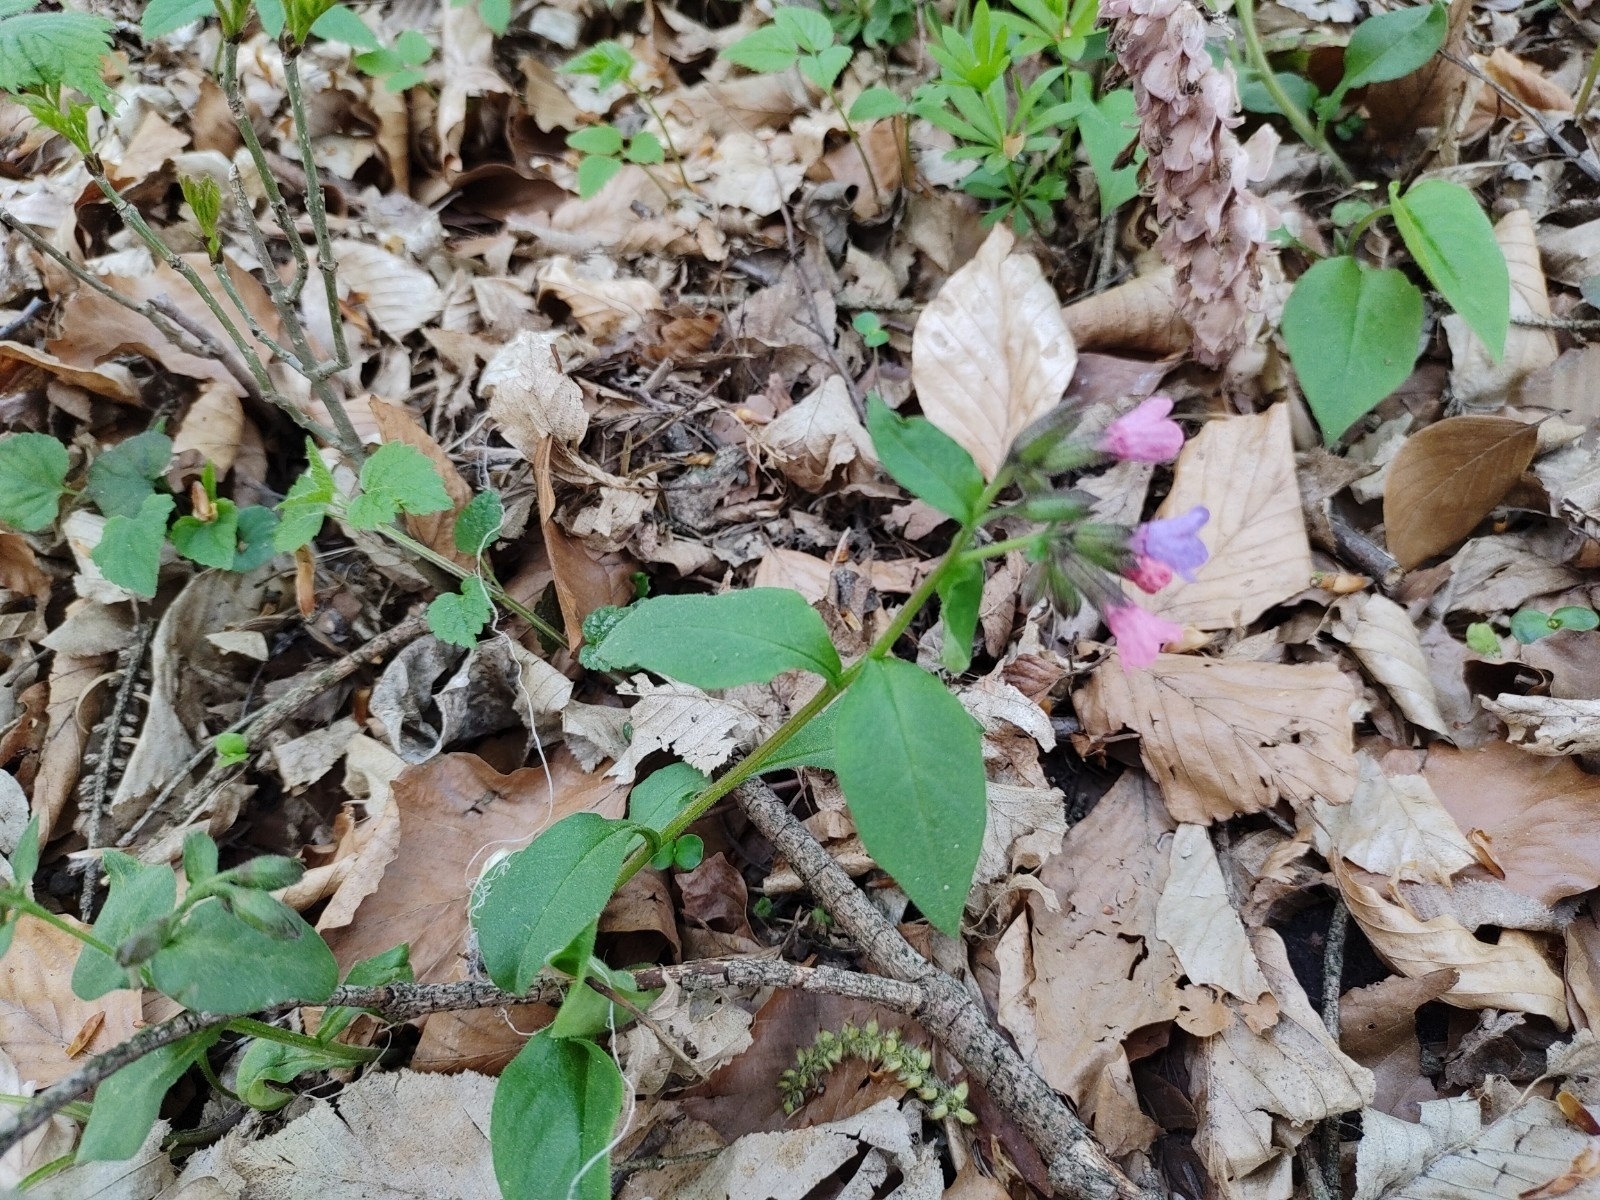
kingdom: Plantae
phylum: Tracheophyta
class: Magnoliopsida
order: Boraginales
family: Boraginaceae
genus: Pulmonaria
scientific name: Pulmonaria obscura
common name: Suffolk lungwort
